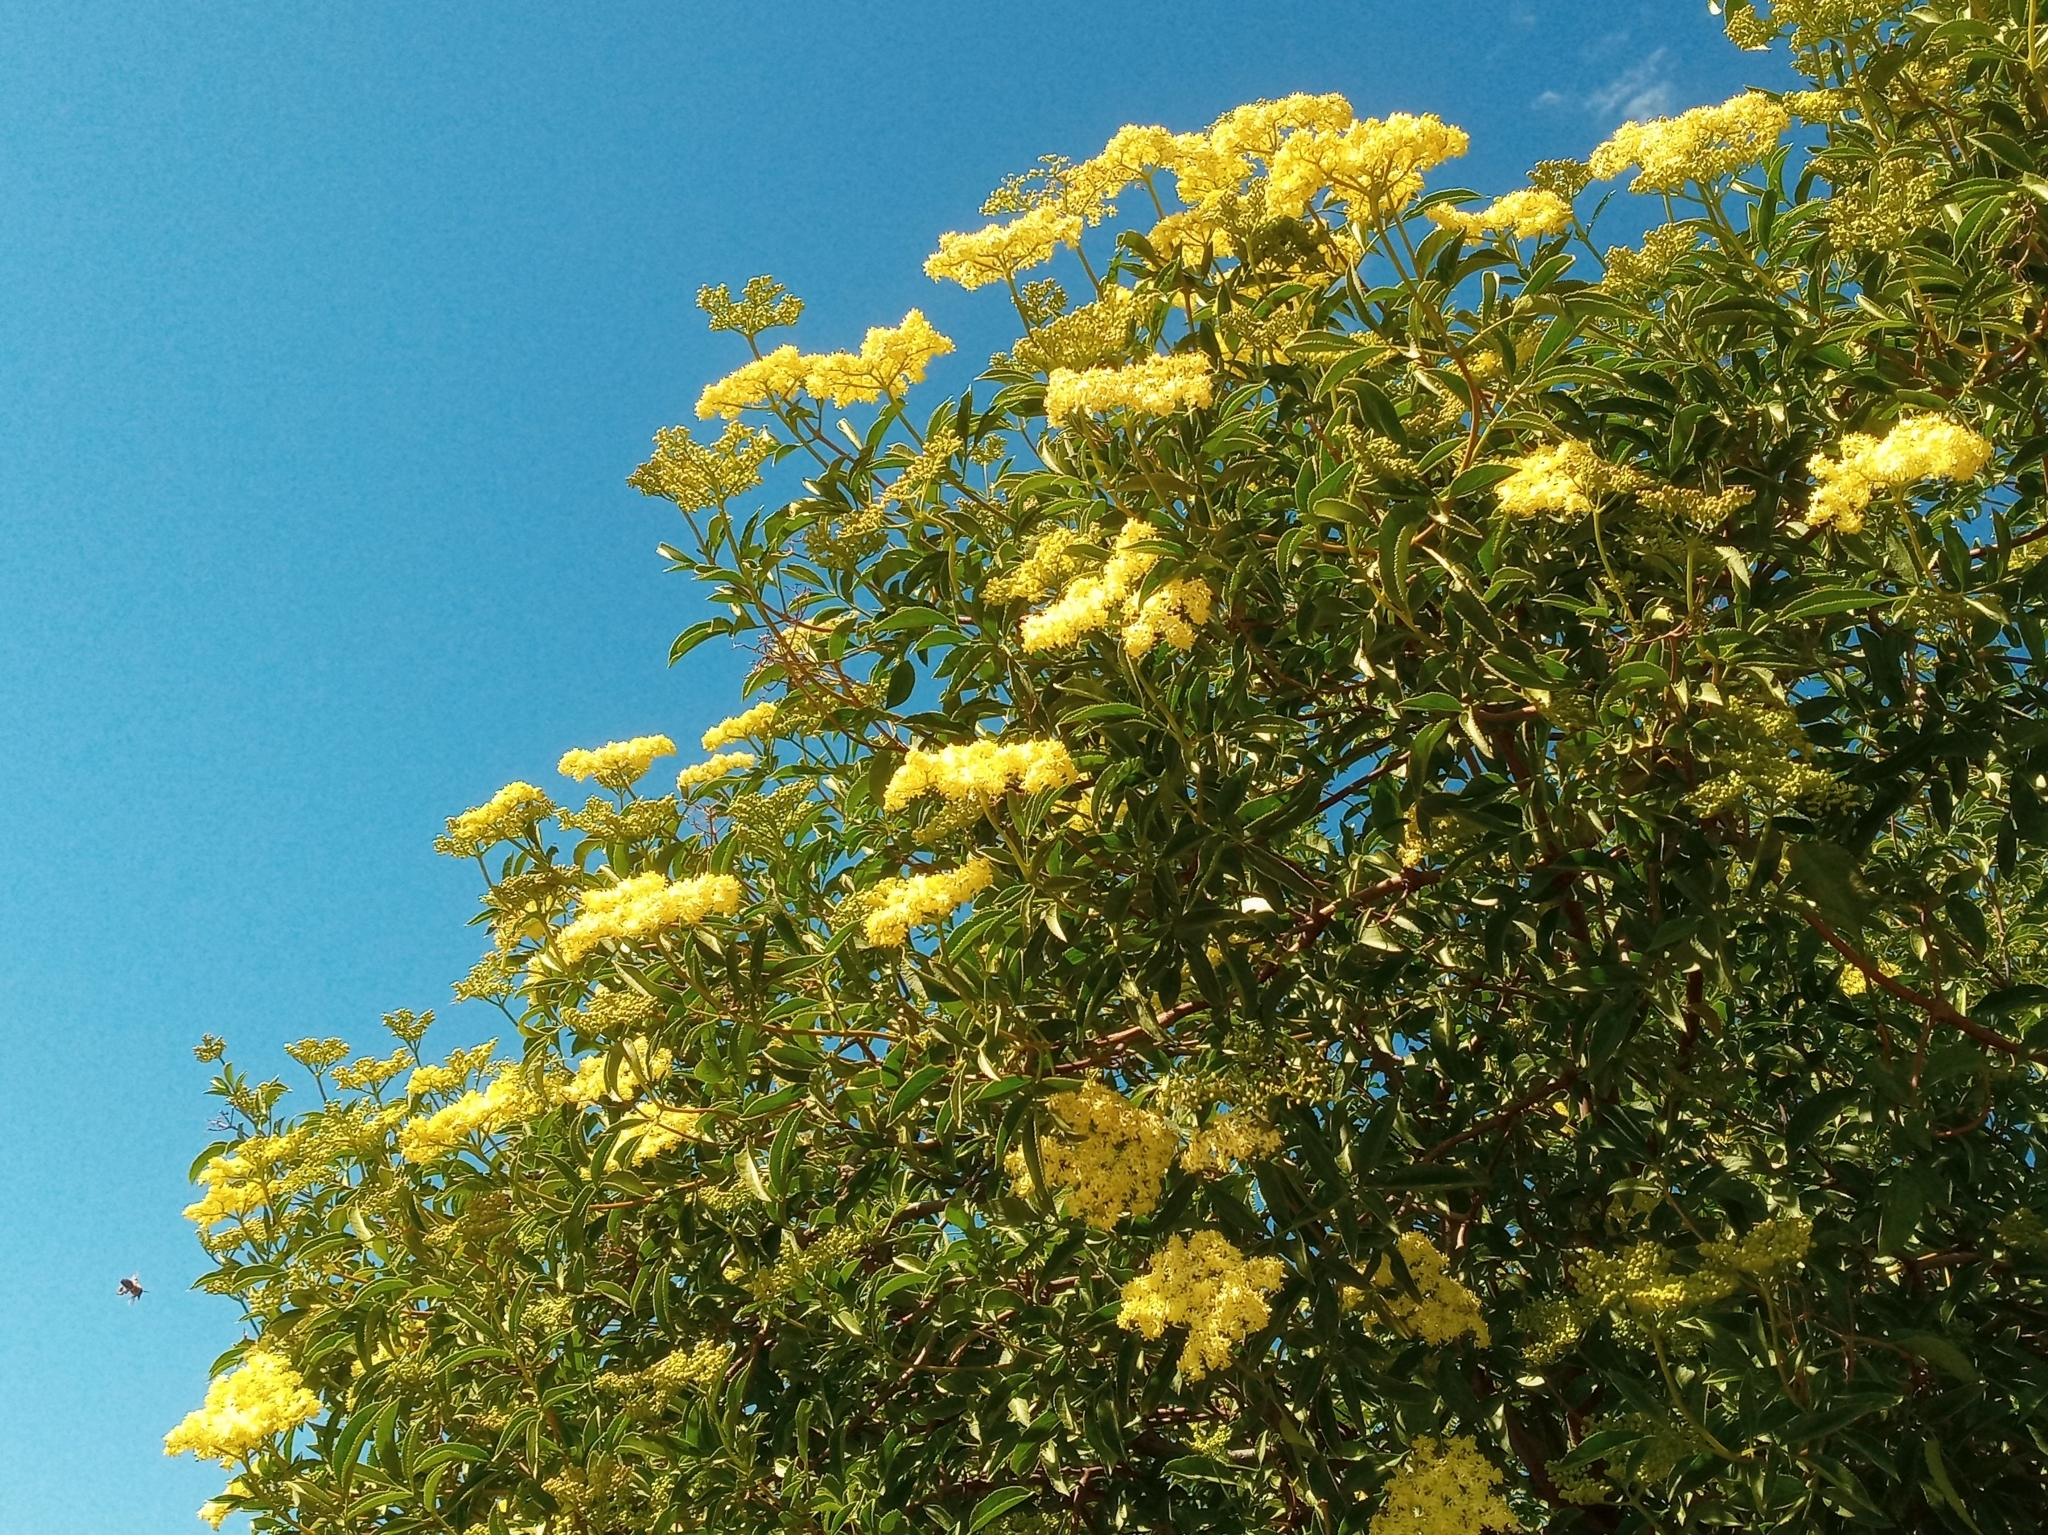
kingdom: Plantae
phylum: Tracheophyta
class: Magnoliopsida
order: Dipsacales
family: Viburnaceae
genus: Sambucus
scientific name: Sambucus cerulea
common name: Blue elder
